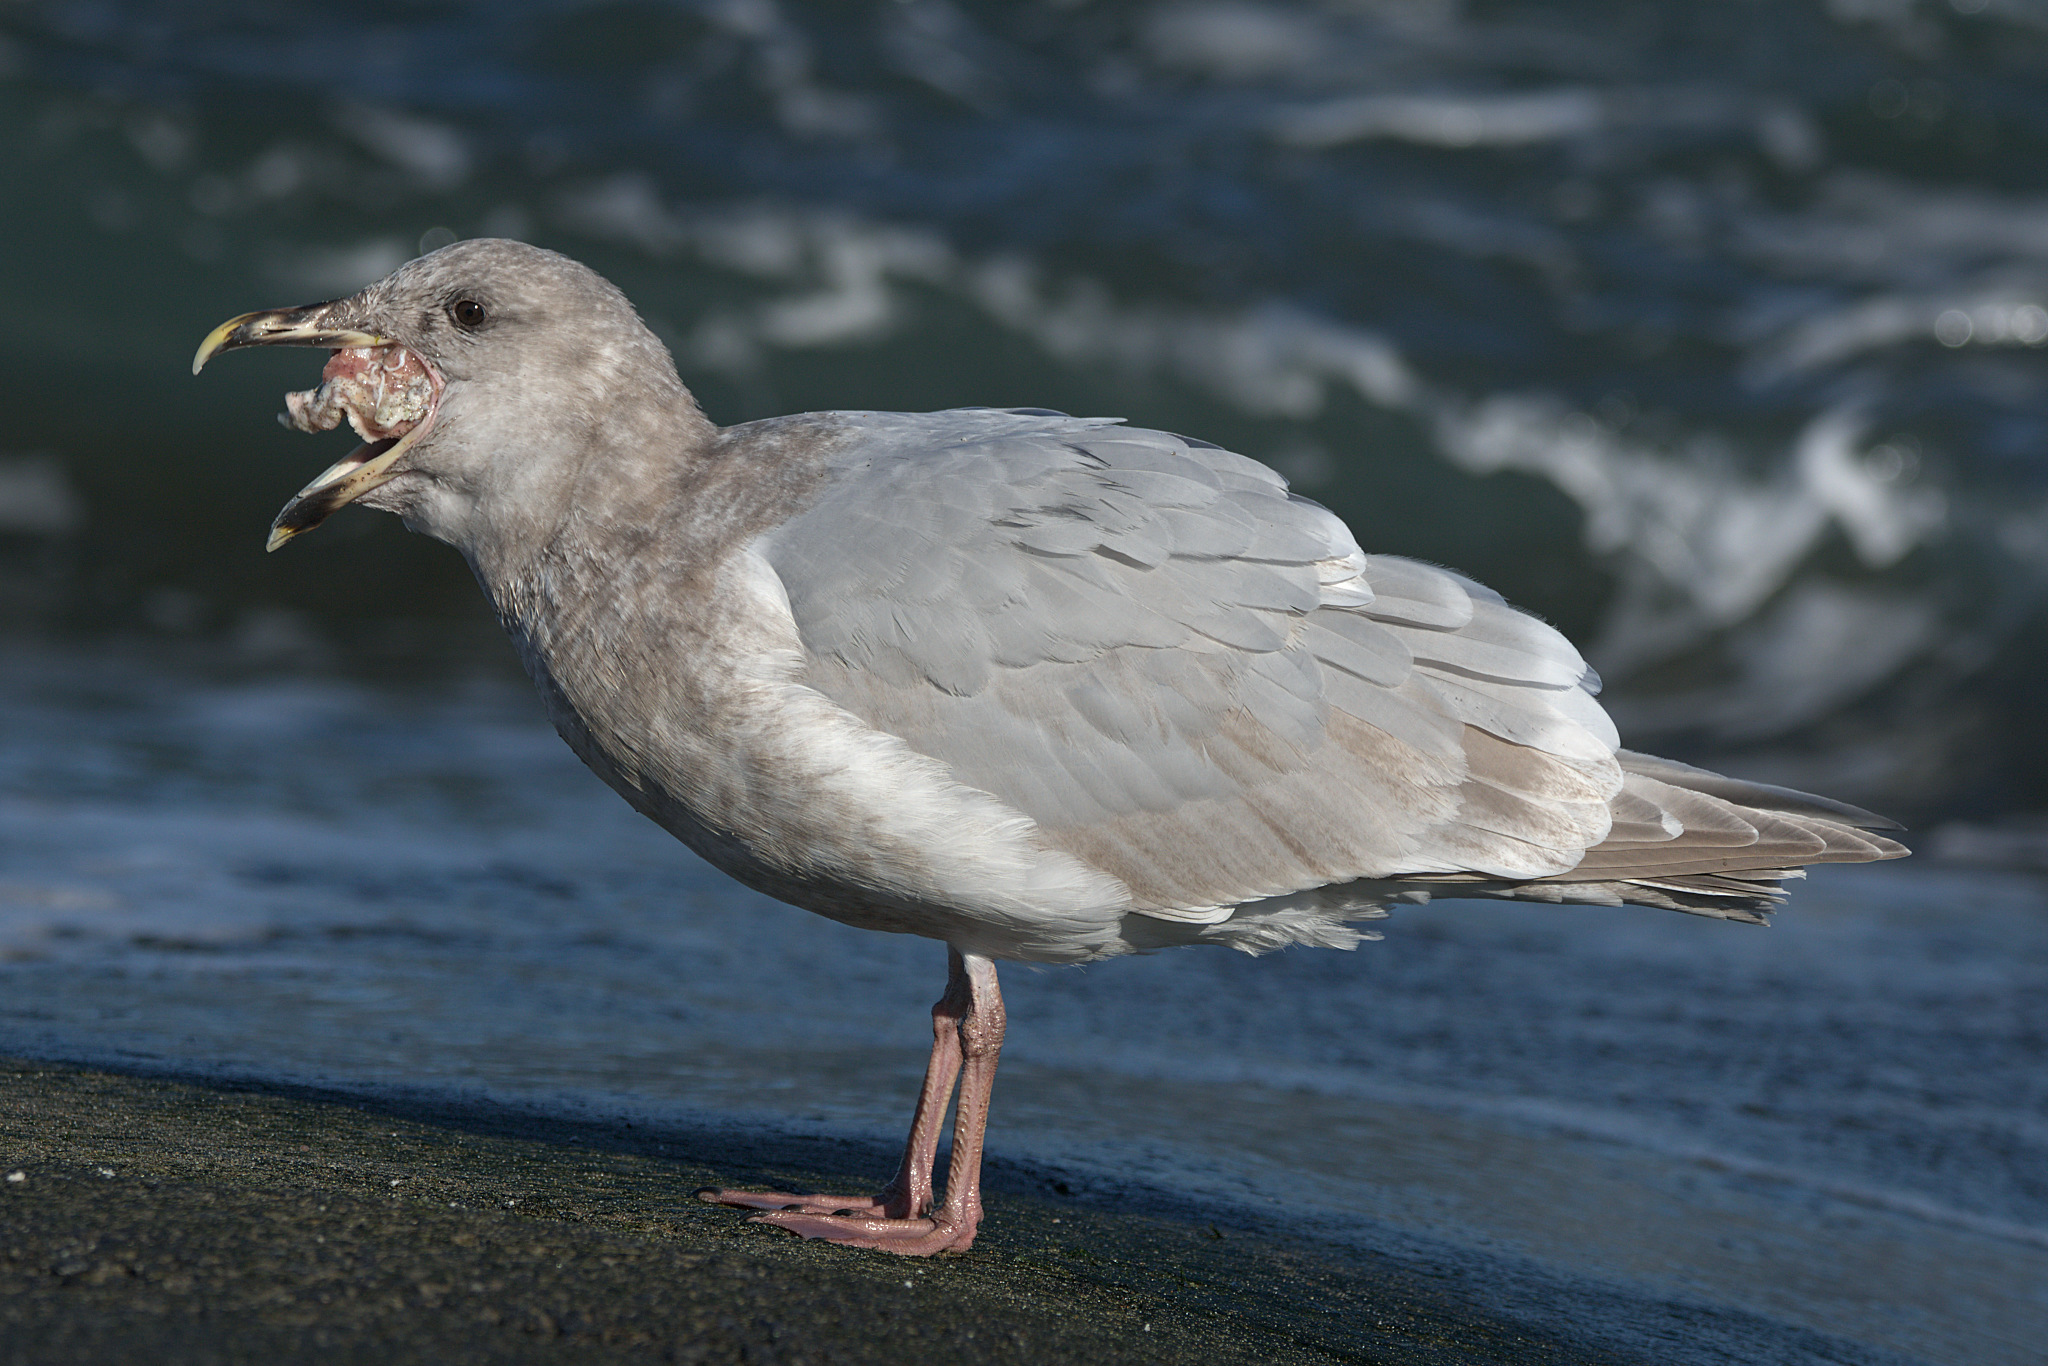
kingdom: Animalia
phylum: Chordata
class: Aves
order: Charadriiformes
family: Laridae
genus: Larus
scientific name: Larus
